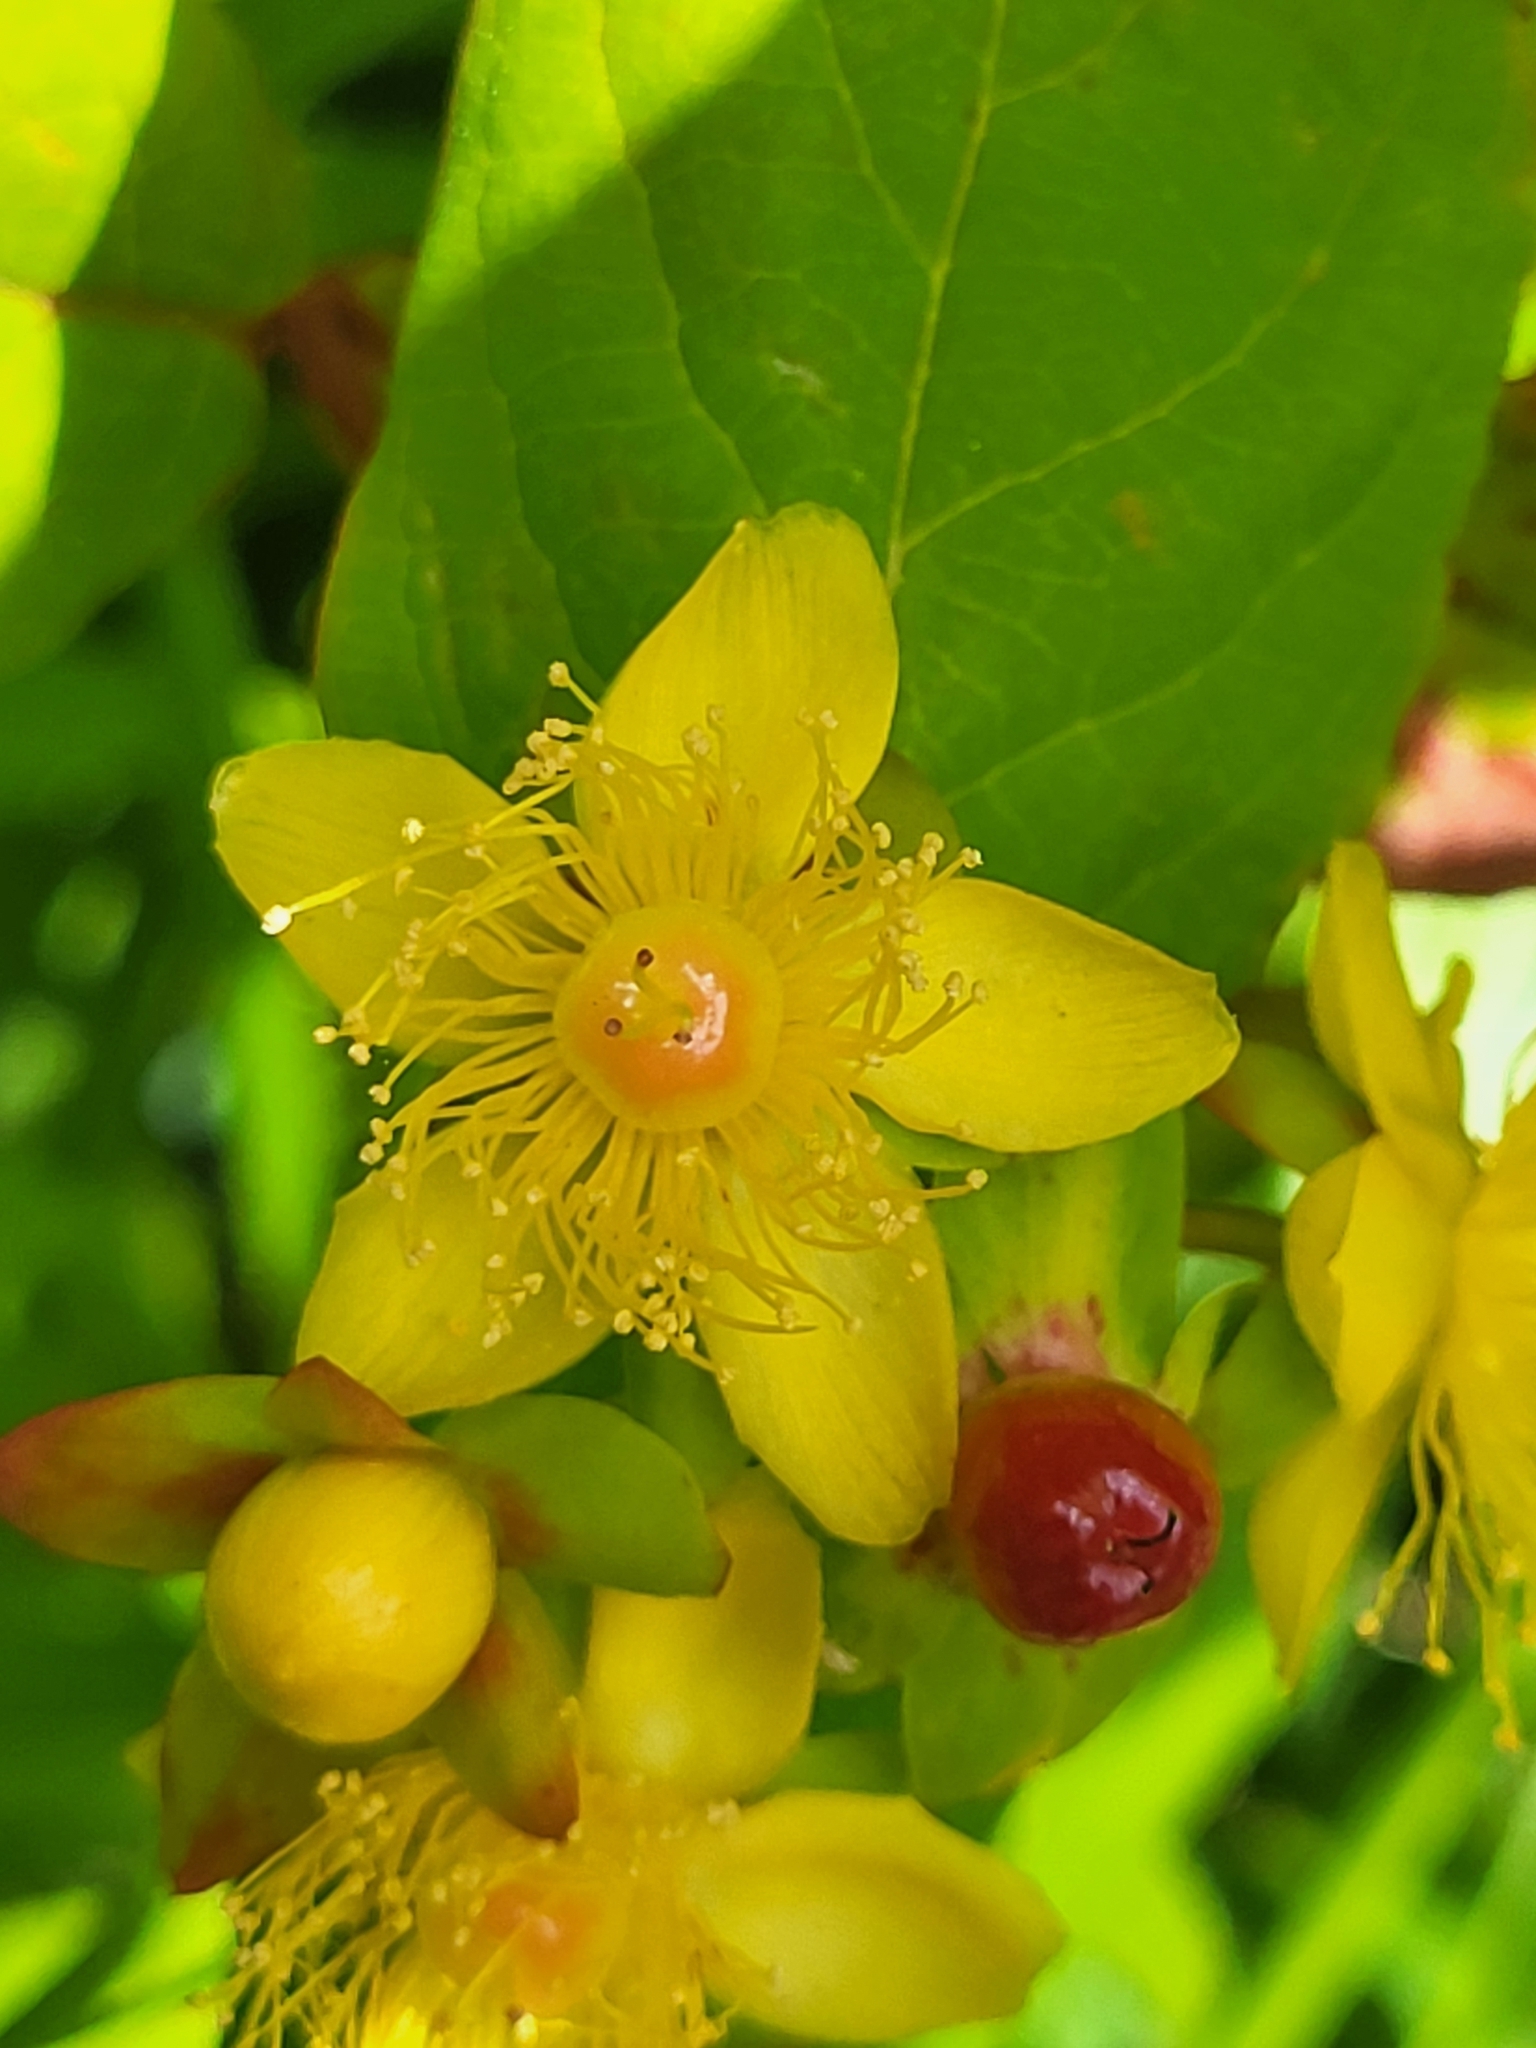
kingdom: Plantae
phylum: Tracheophyta
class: Magnoliopsida
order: Malpighiales
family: Hypericaceae
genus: Hypericum
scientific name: Hypericum androsaemum
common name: Sweet-amber
